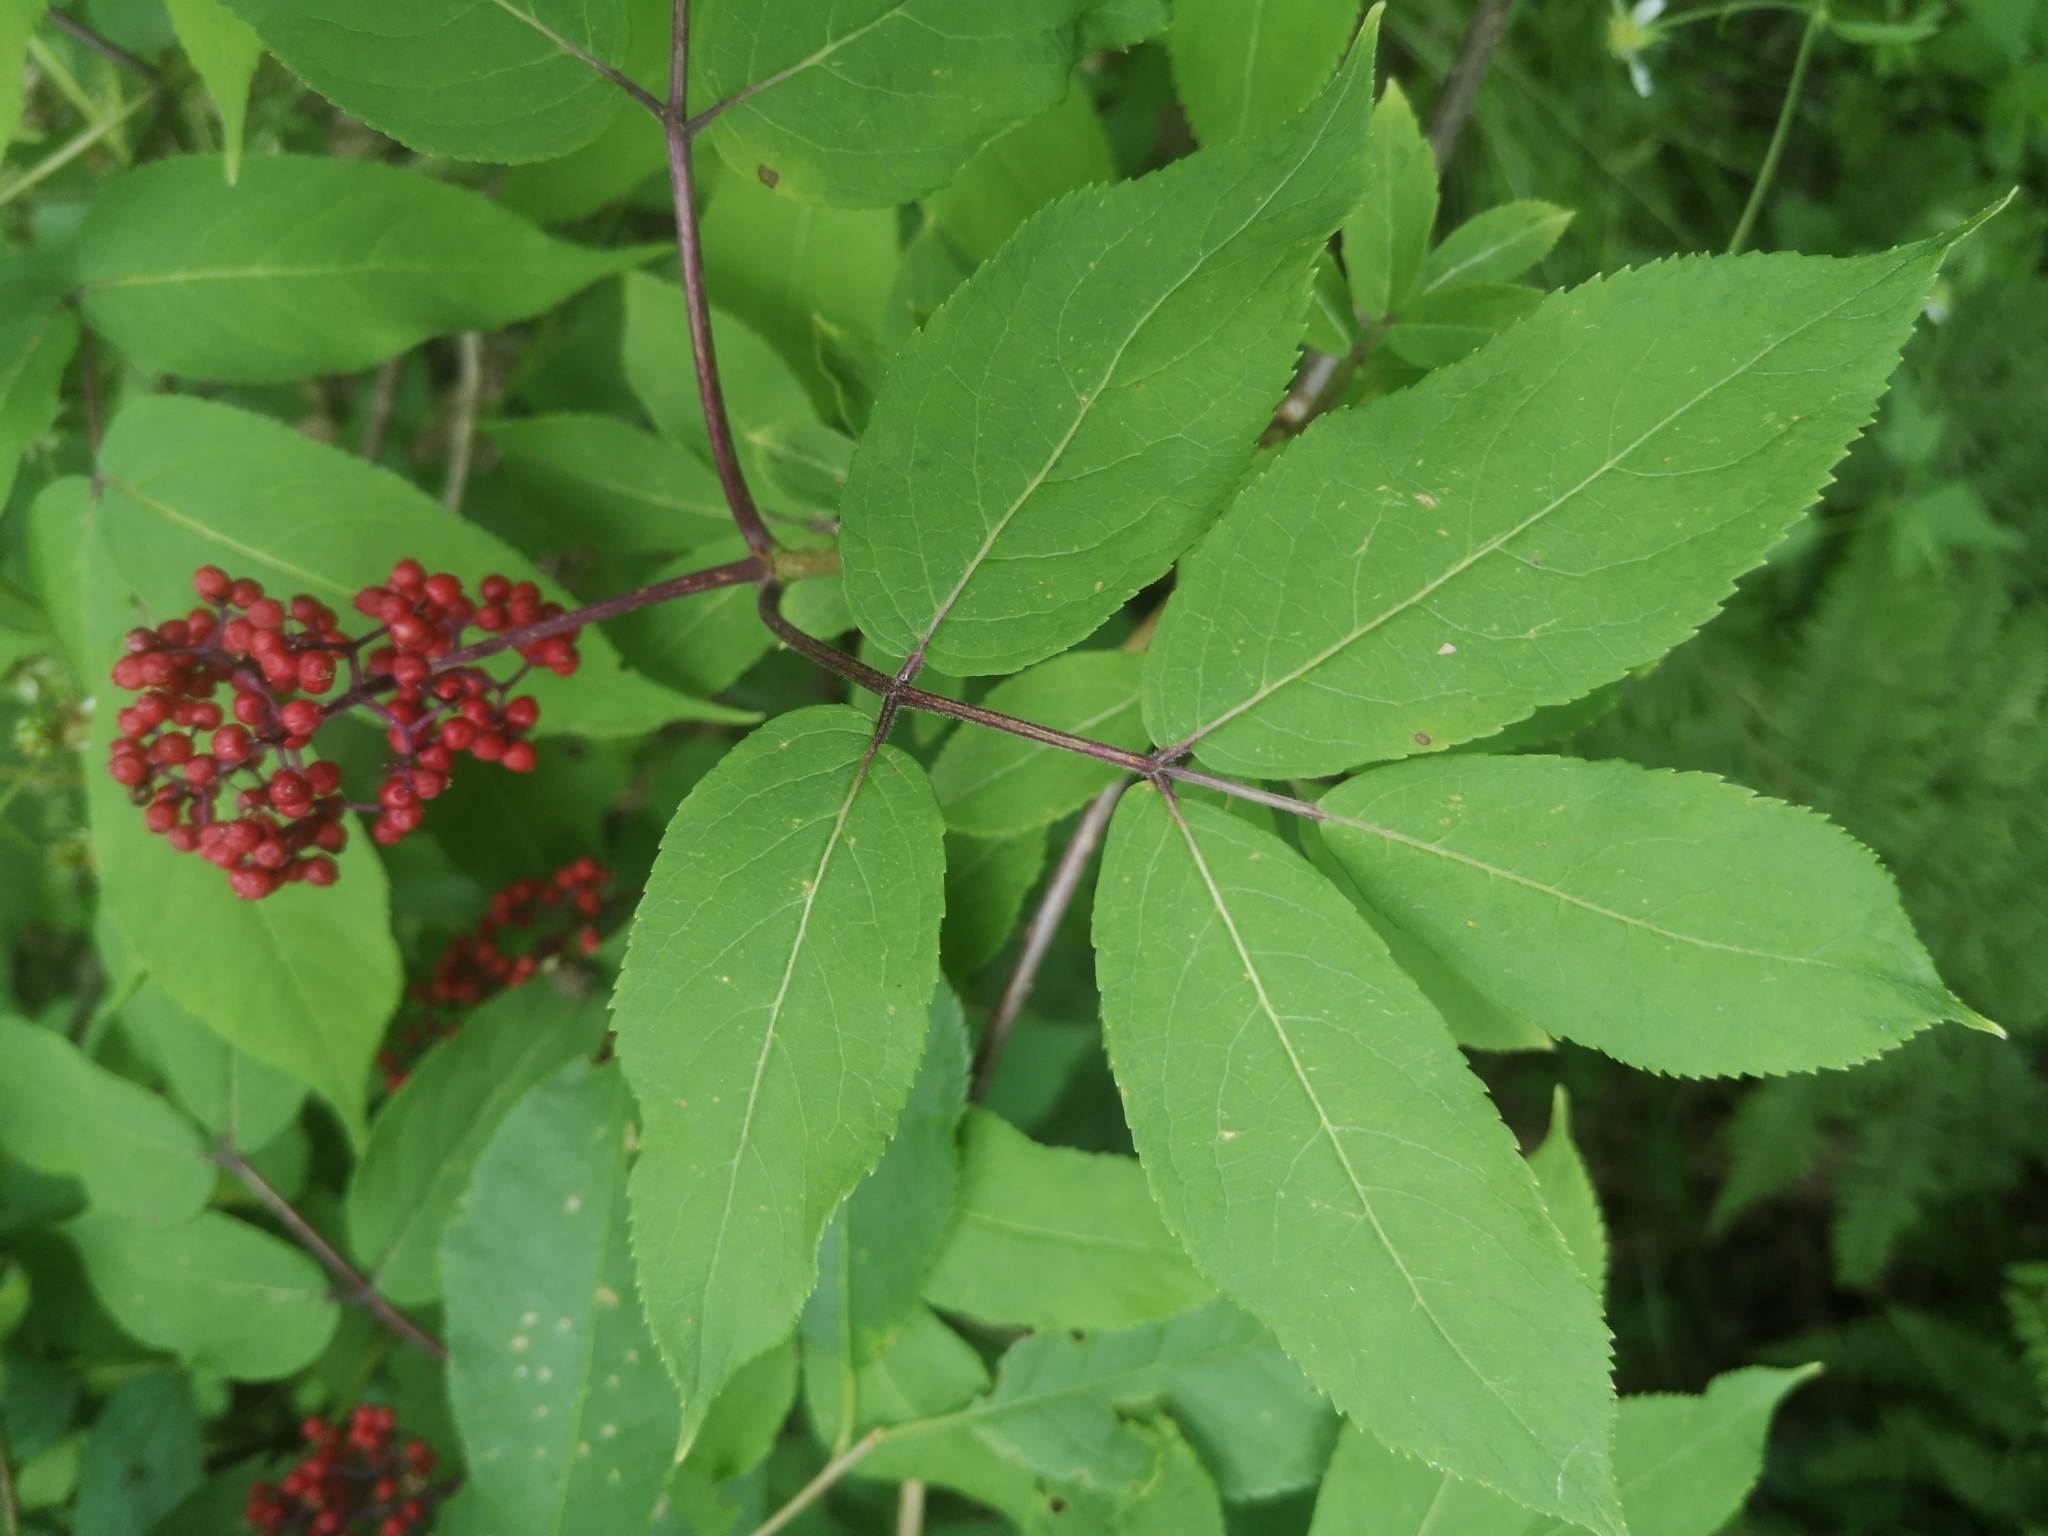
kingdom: Plantae
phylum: Tracheophyta
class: Magnoliopsida
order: Dipsacales
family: Viburnaceae
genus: Sambucus
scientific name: Sambucus racemosa
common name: Red-berried elder
